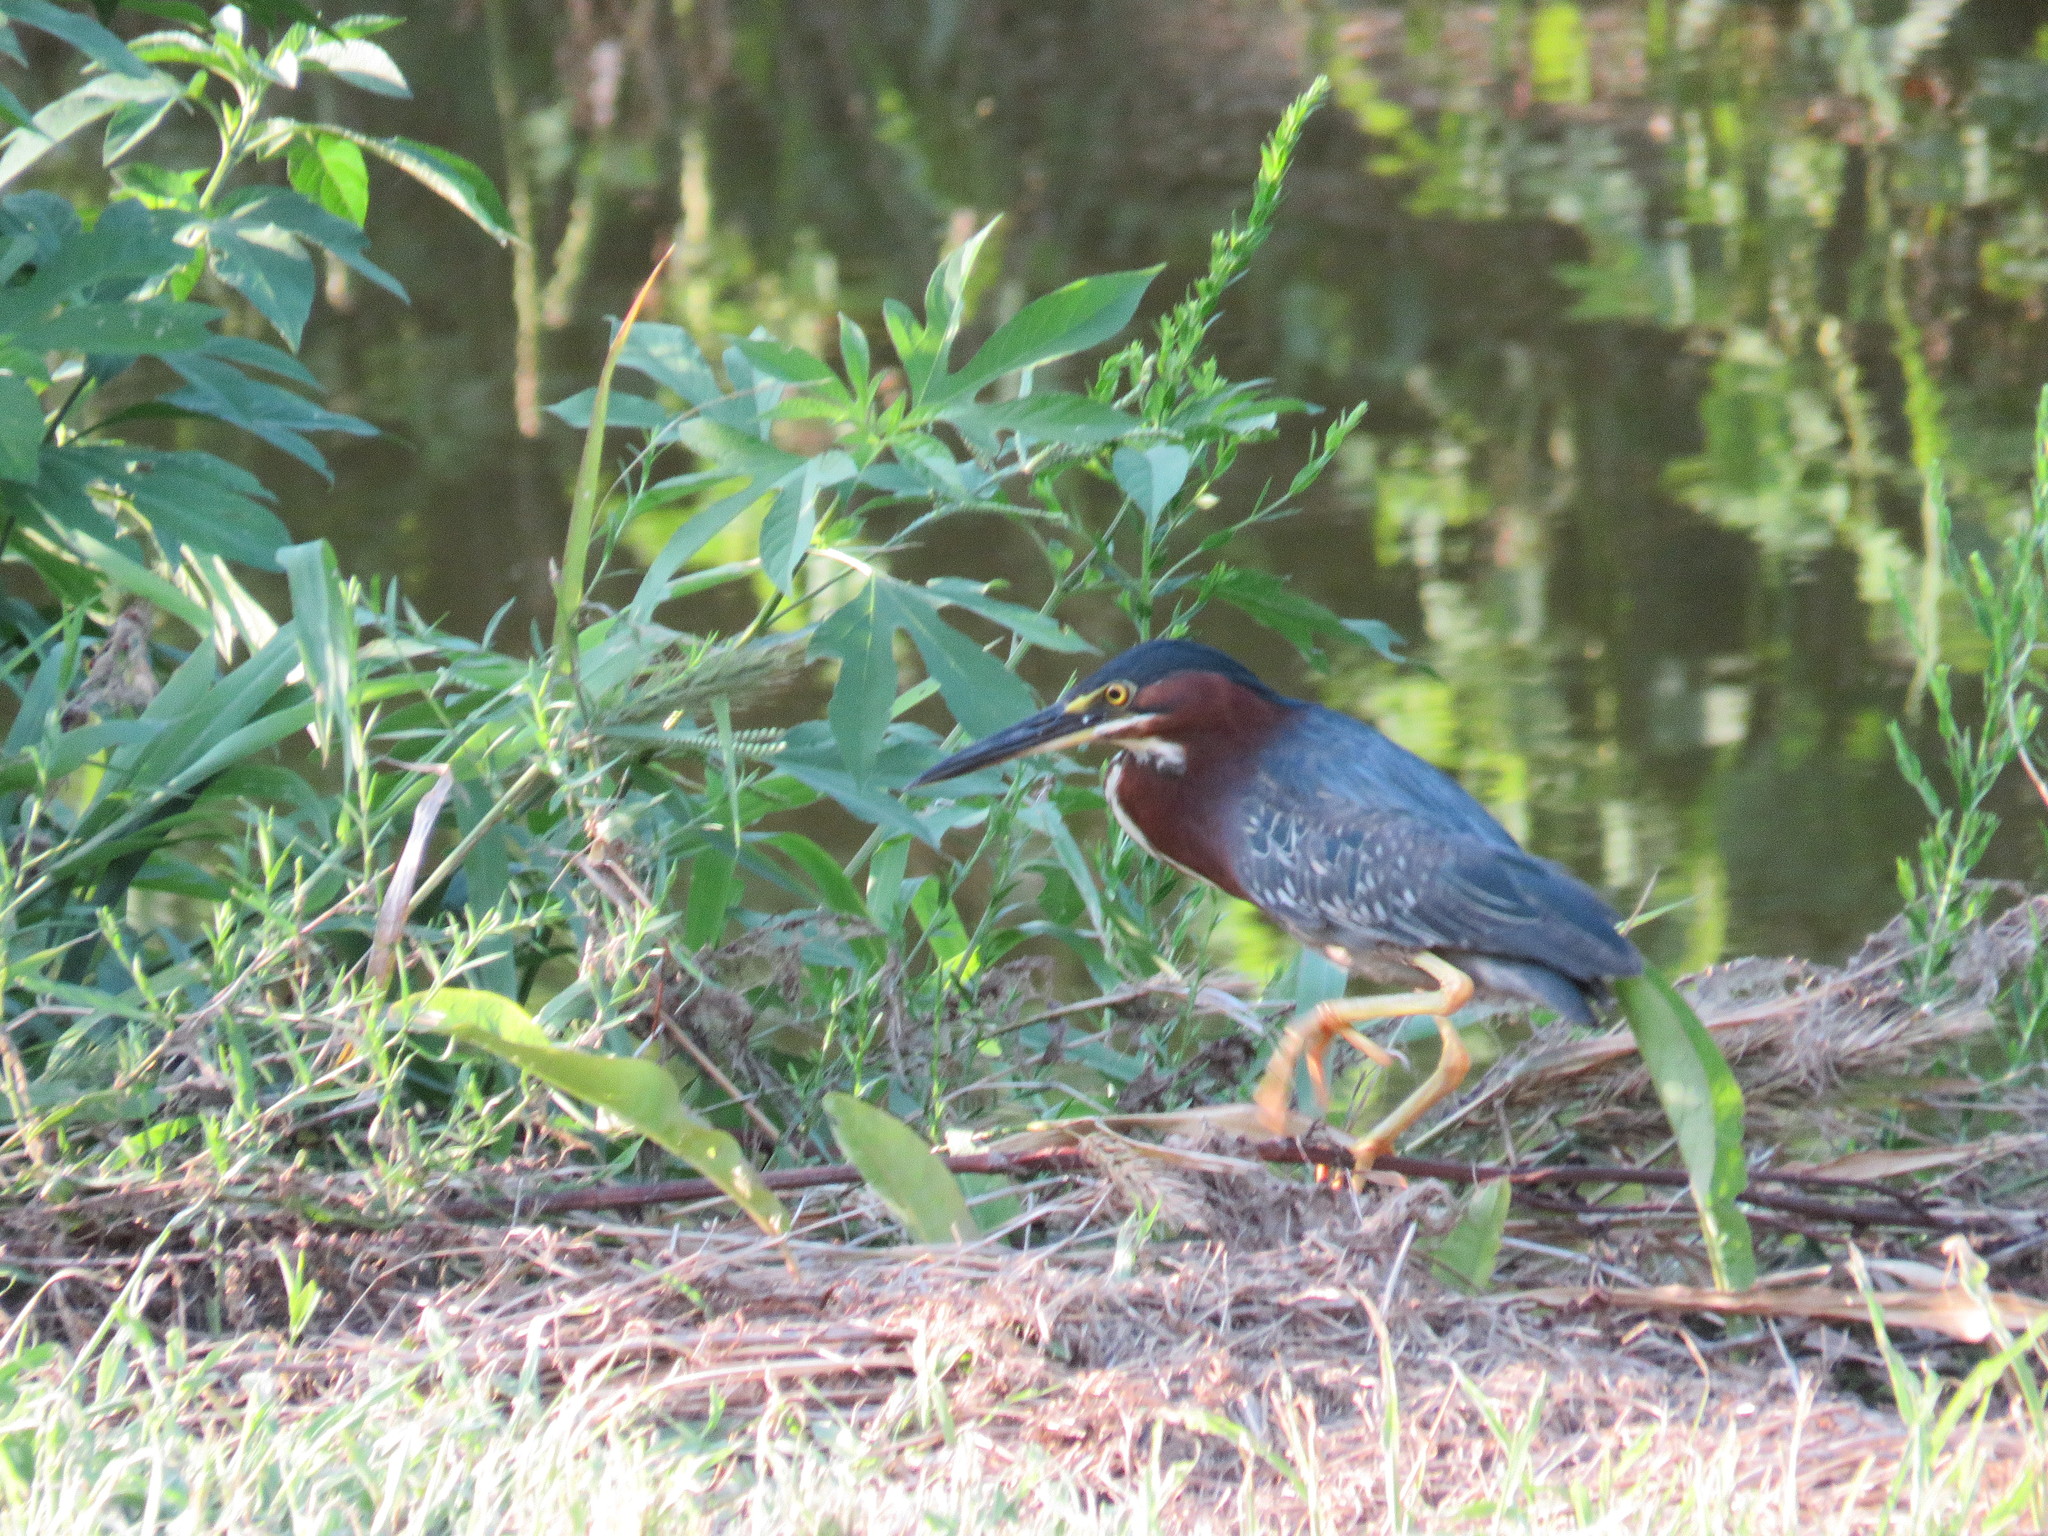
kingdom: Animalia
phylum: Chordata
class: Aves
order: Pelecaniformes
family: Ardeidae
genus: Butorides
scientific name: Butorides virescens
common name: Green heron
